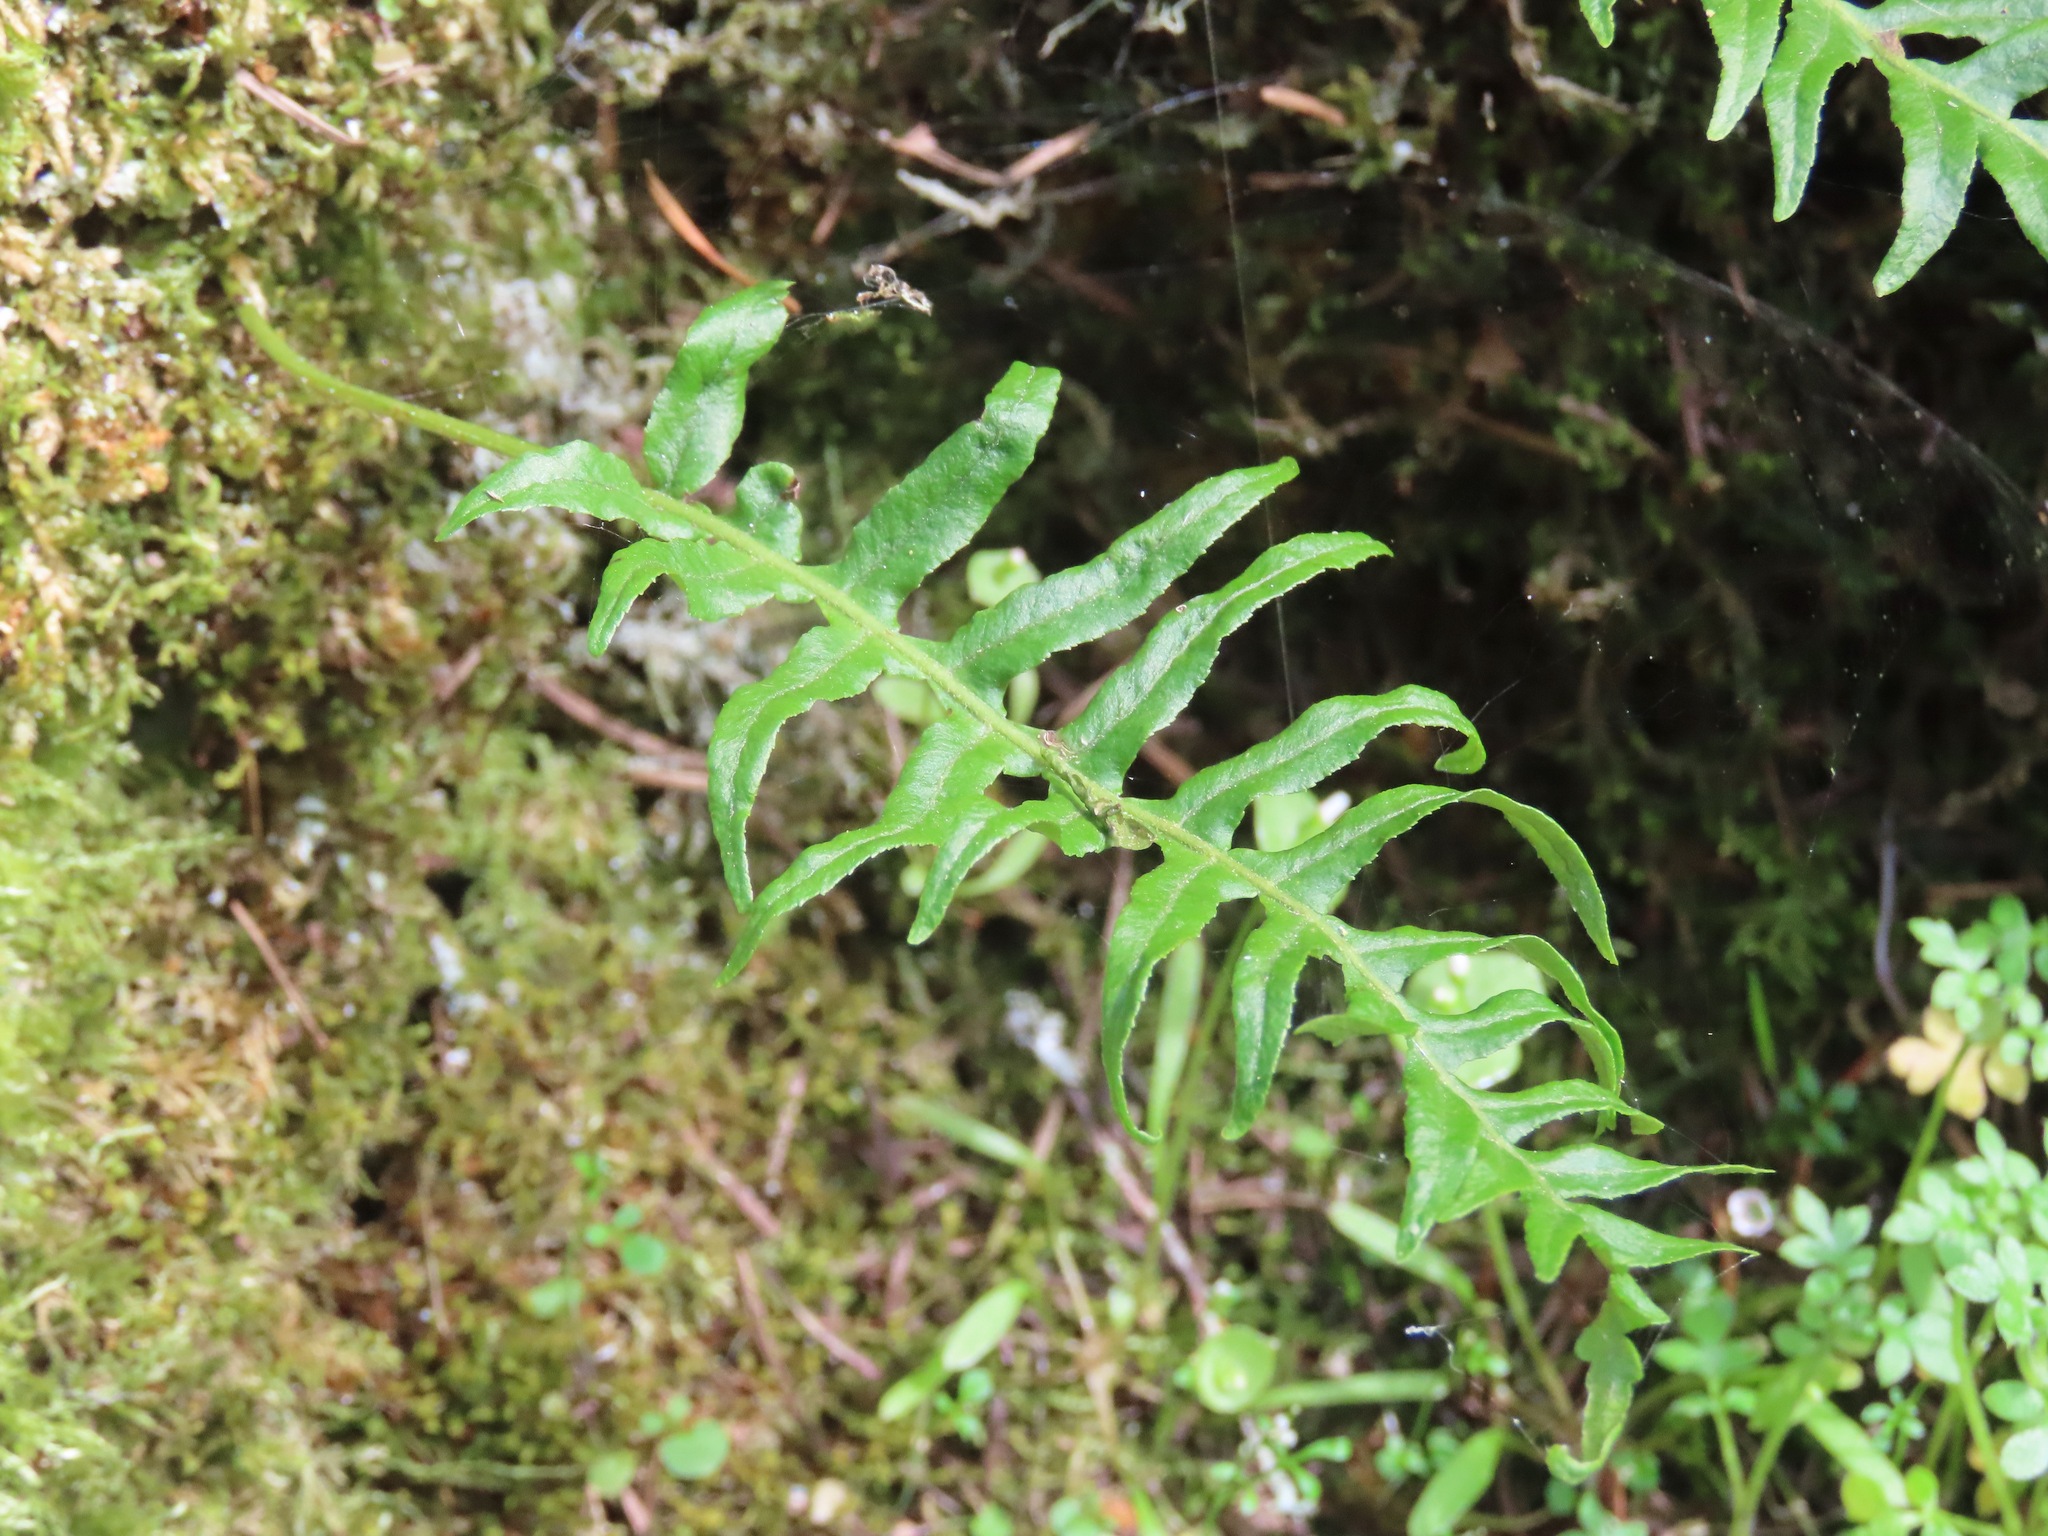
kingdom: Plantae
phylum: Tracheophyta
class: Polypodiopsida
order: Polypodiales
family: Polypodiaceae
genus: Polypodium
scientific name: Polypodium glycyrrhiza
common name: Licorice fern
